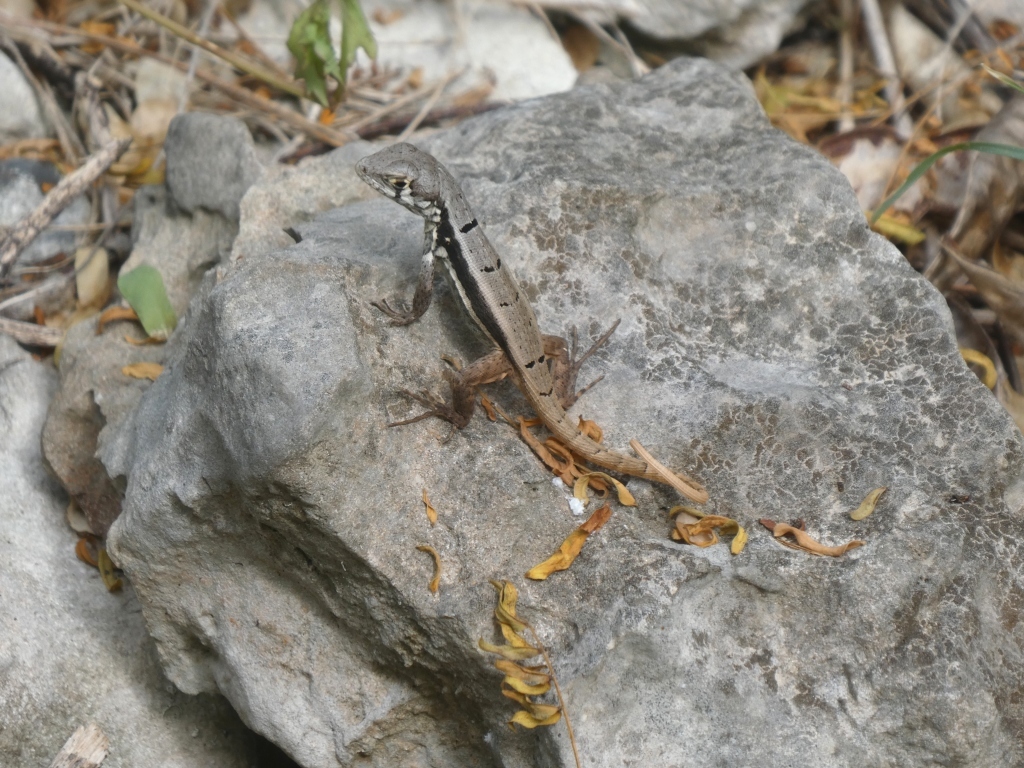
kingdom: Animalia
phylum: Chordata
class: Squamata
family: Leiocephalidae
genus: Leiocephalus
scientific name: Leiocephalus psammodromus
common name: Bastion cay curlytail lizard
